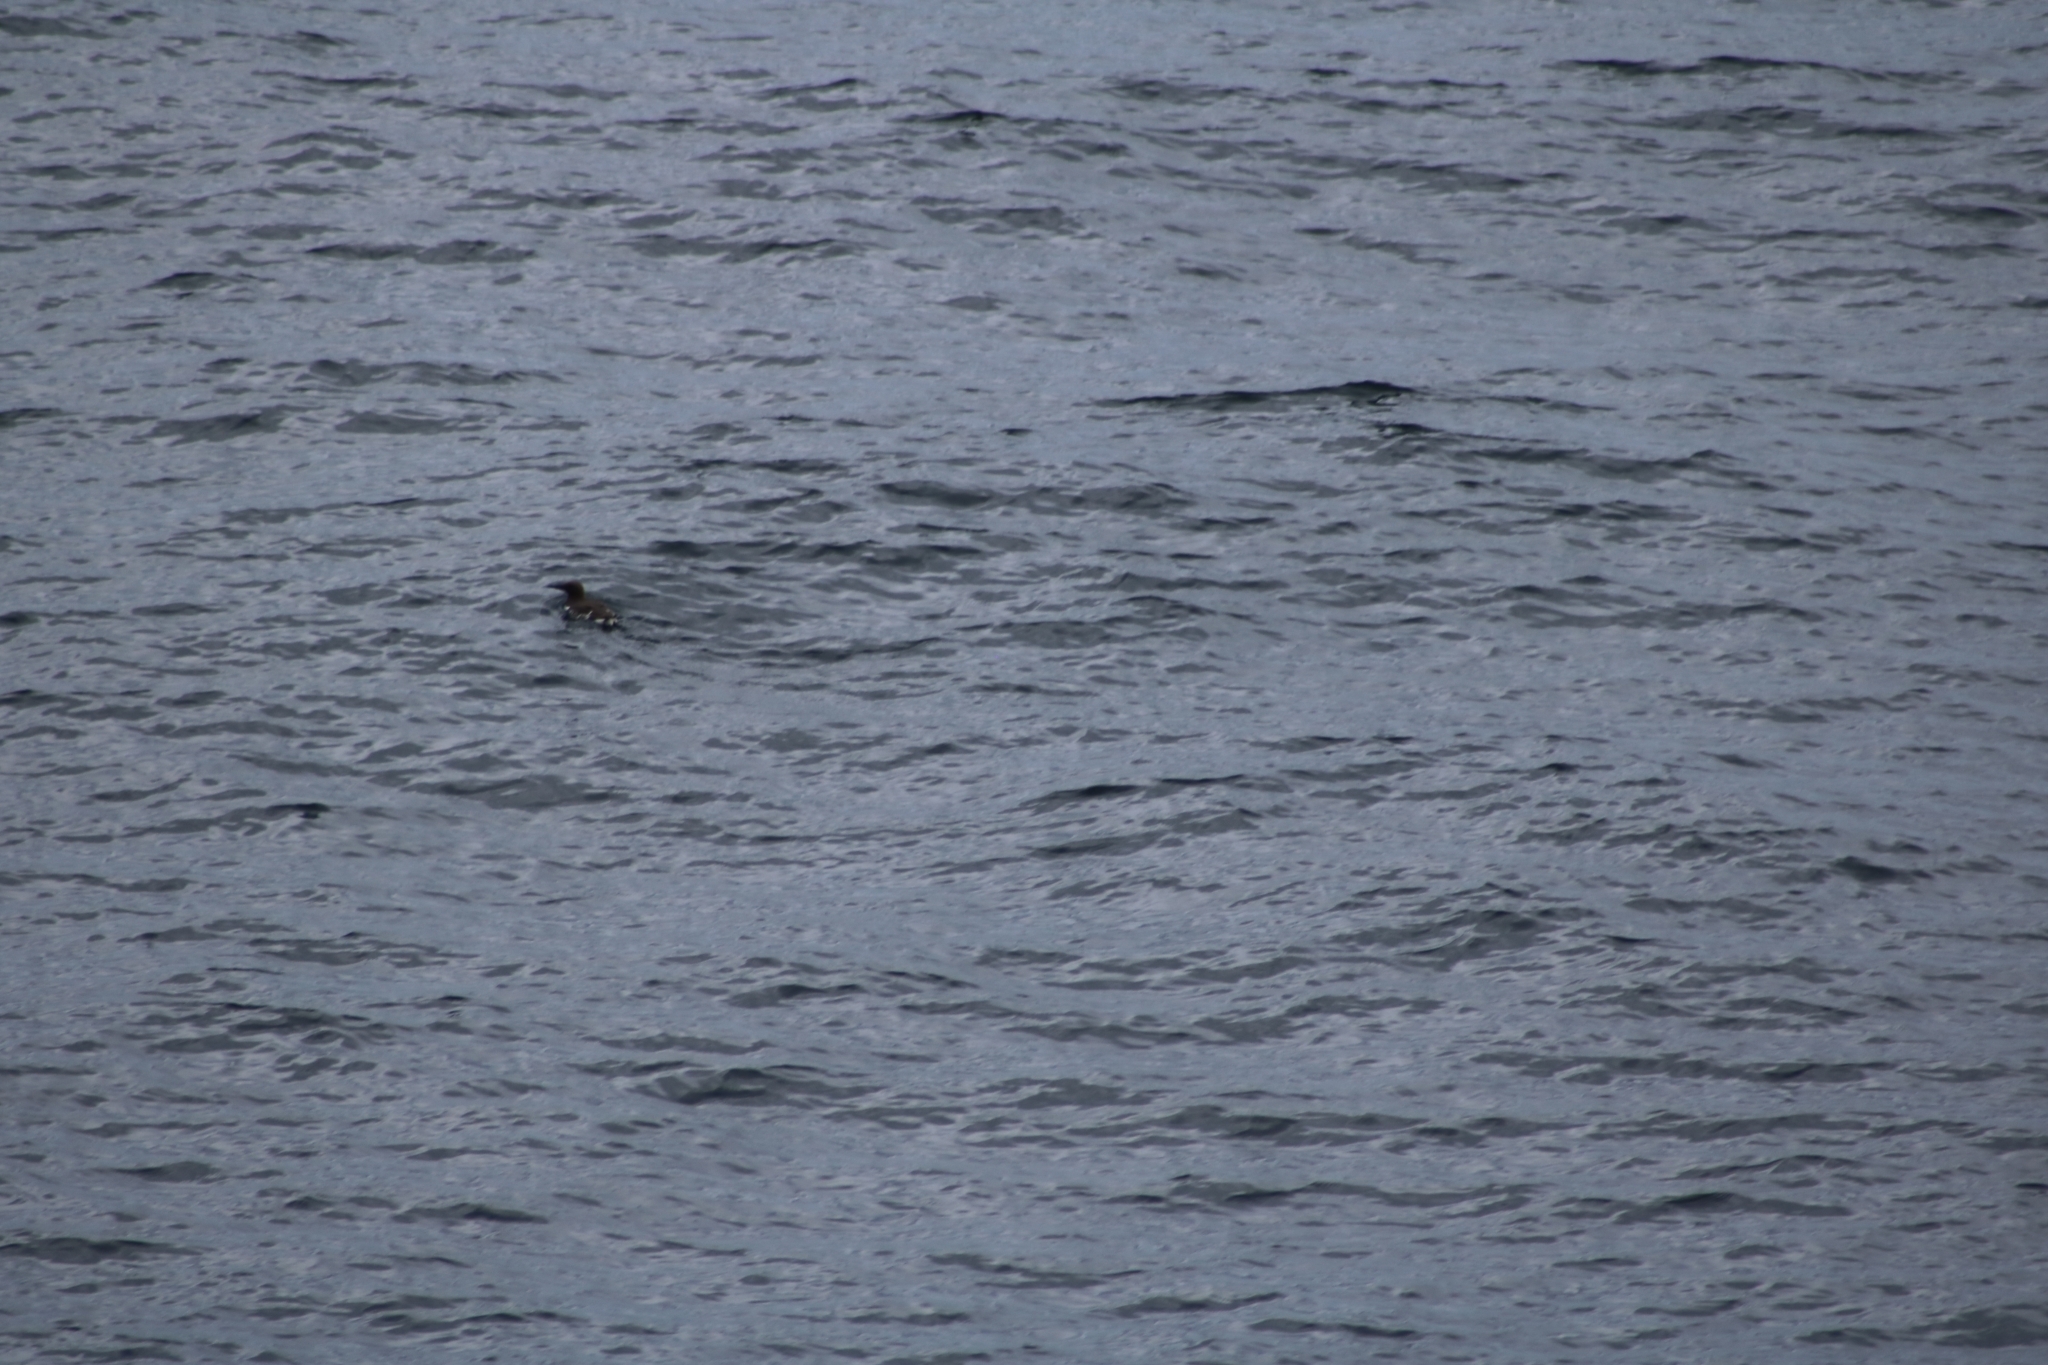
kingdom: Animalia
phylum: Chordata
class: Aves
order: Charadriiformes
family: Alcidae
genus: Uria
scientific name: Uria aalge
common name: Common murre
